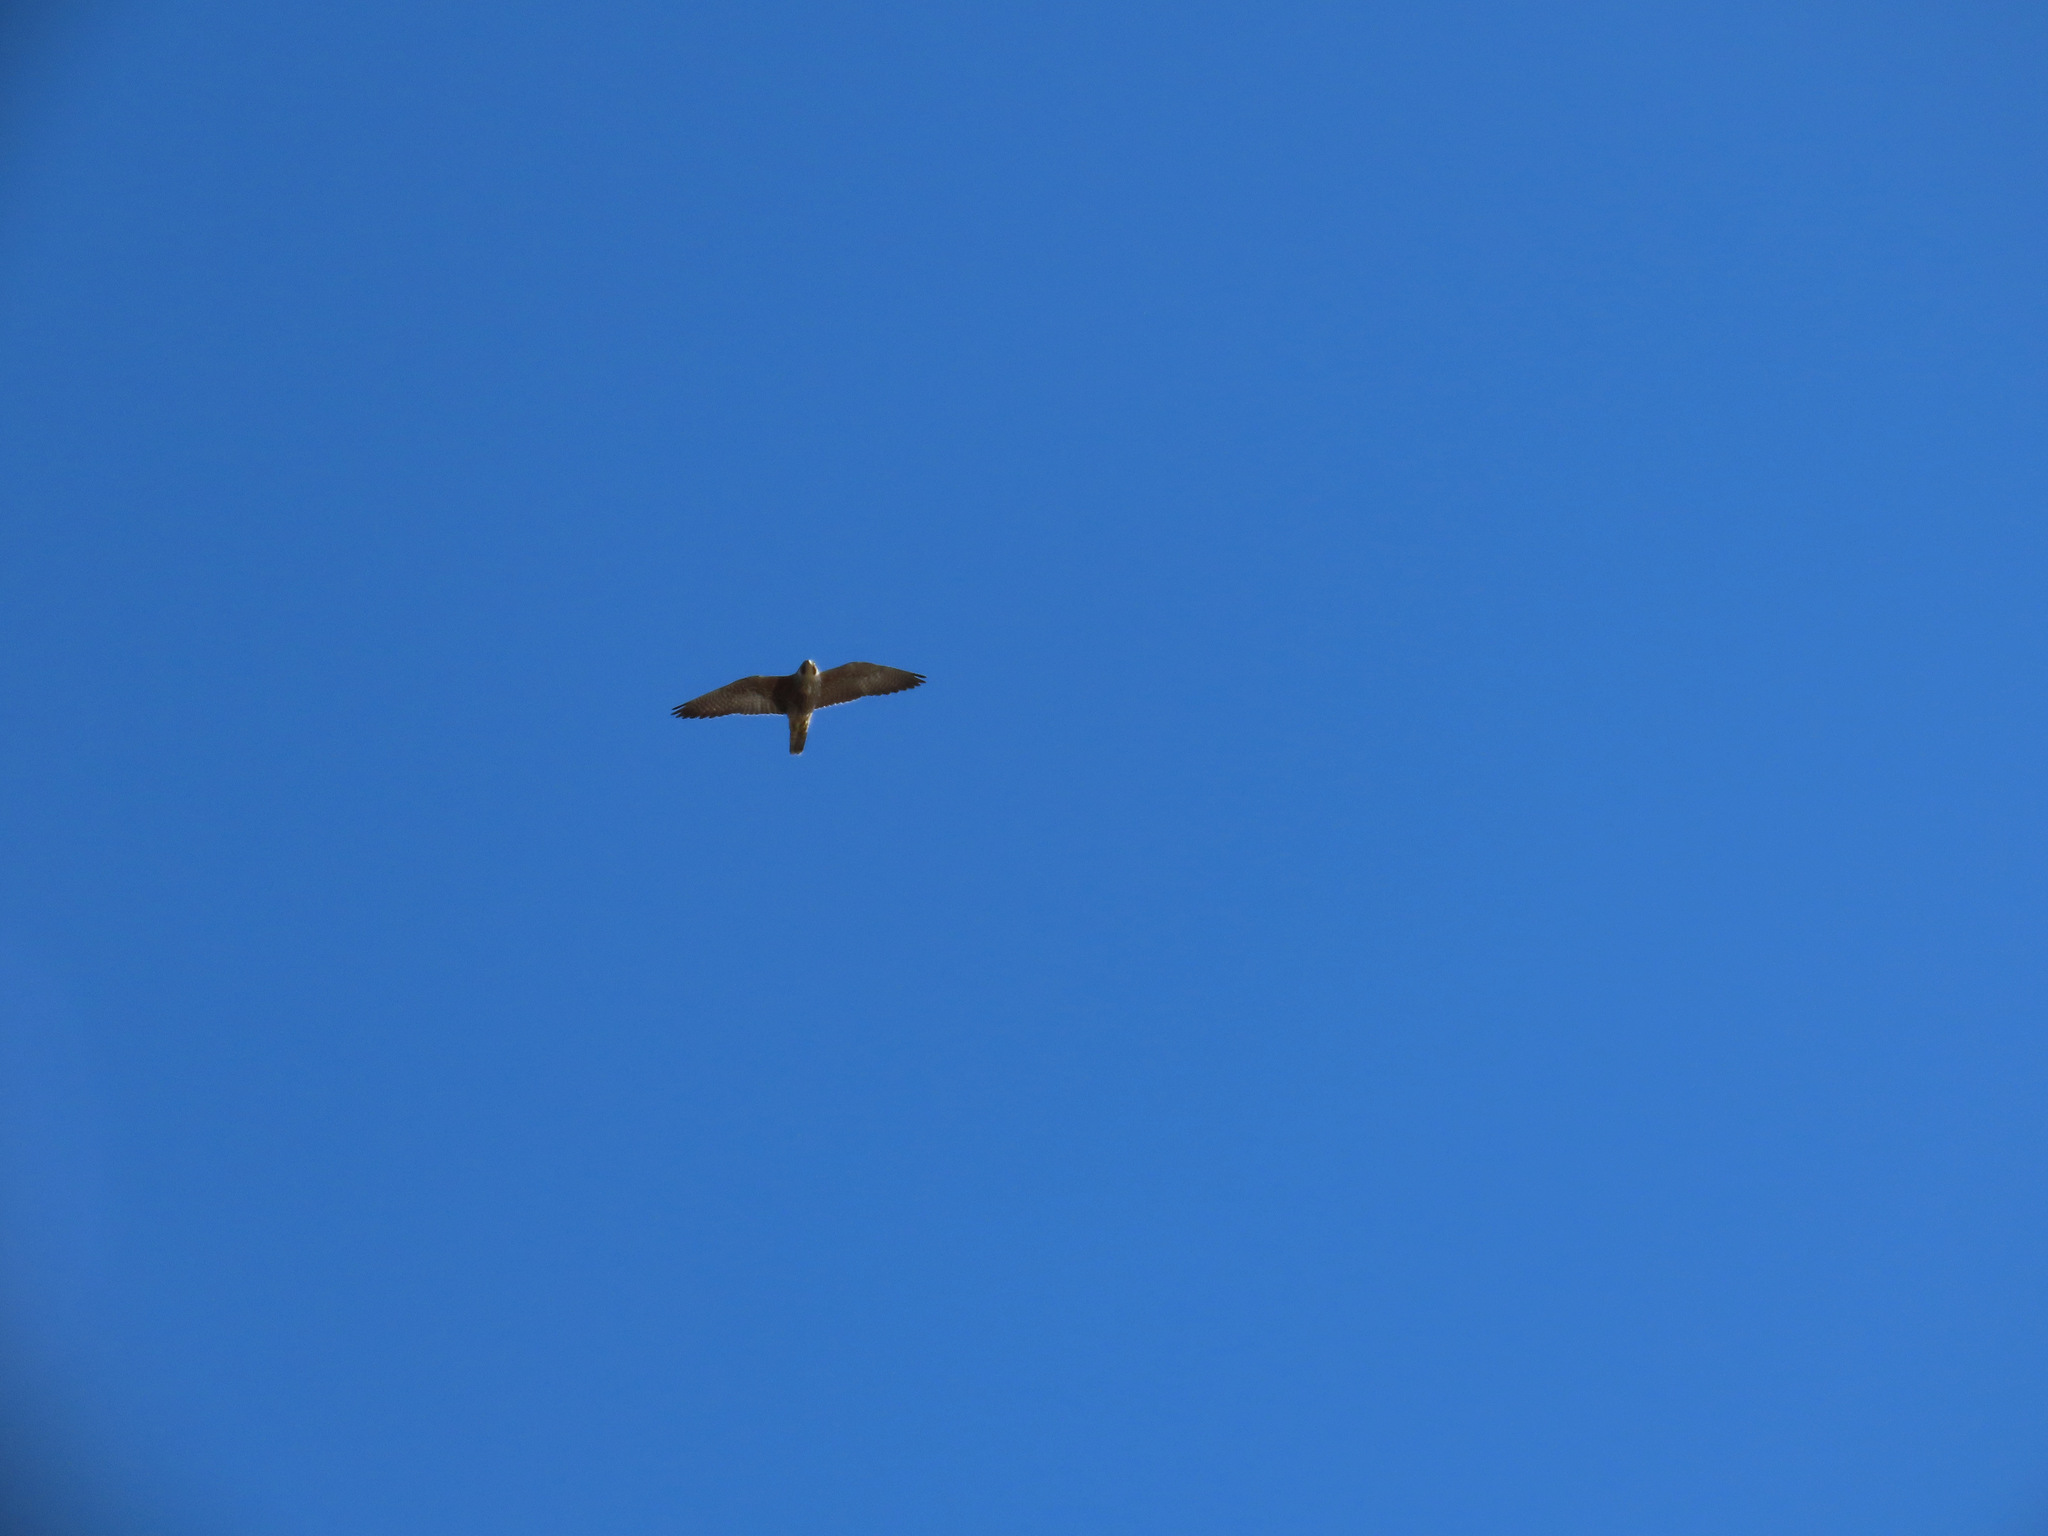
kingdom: Animalia
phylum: Chordata
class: Aves
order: Falconiformes
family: Falconidae
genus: Falco
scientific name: Falco peregrinus
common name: Peregrine falcon
